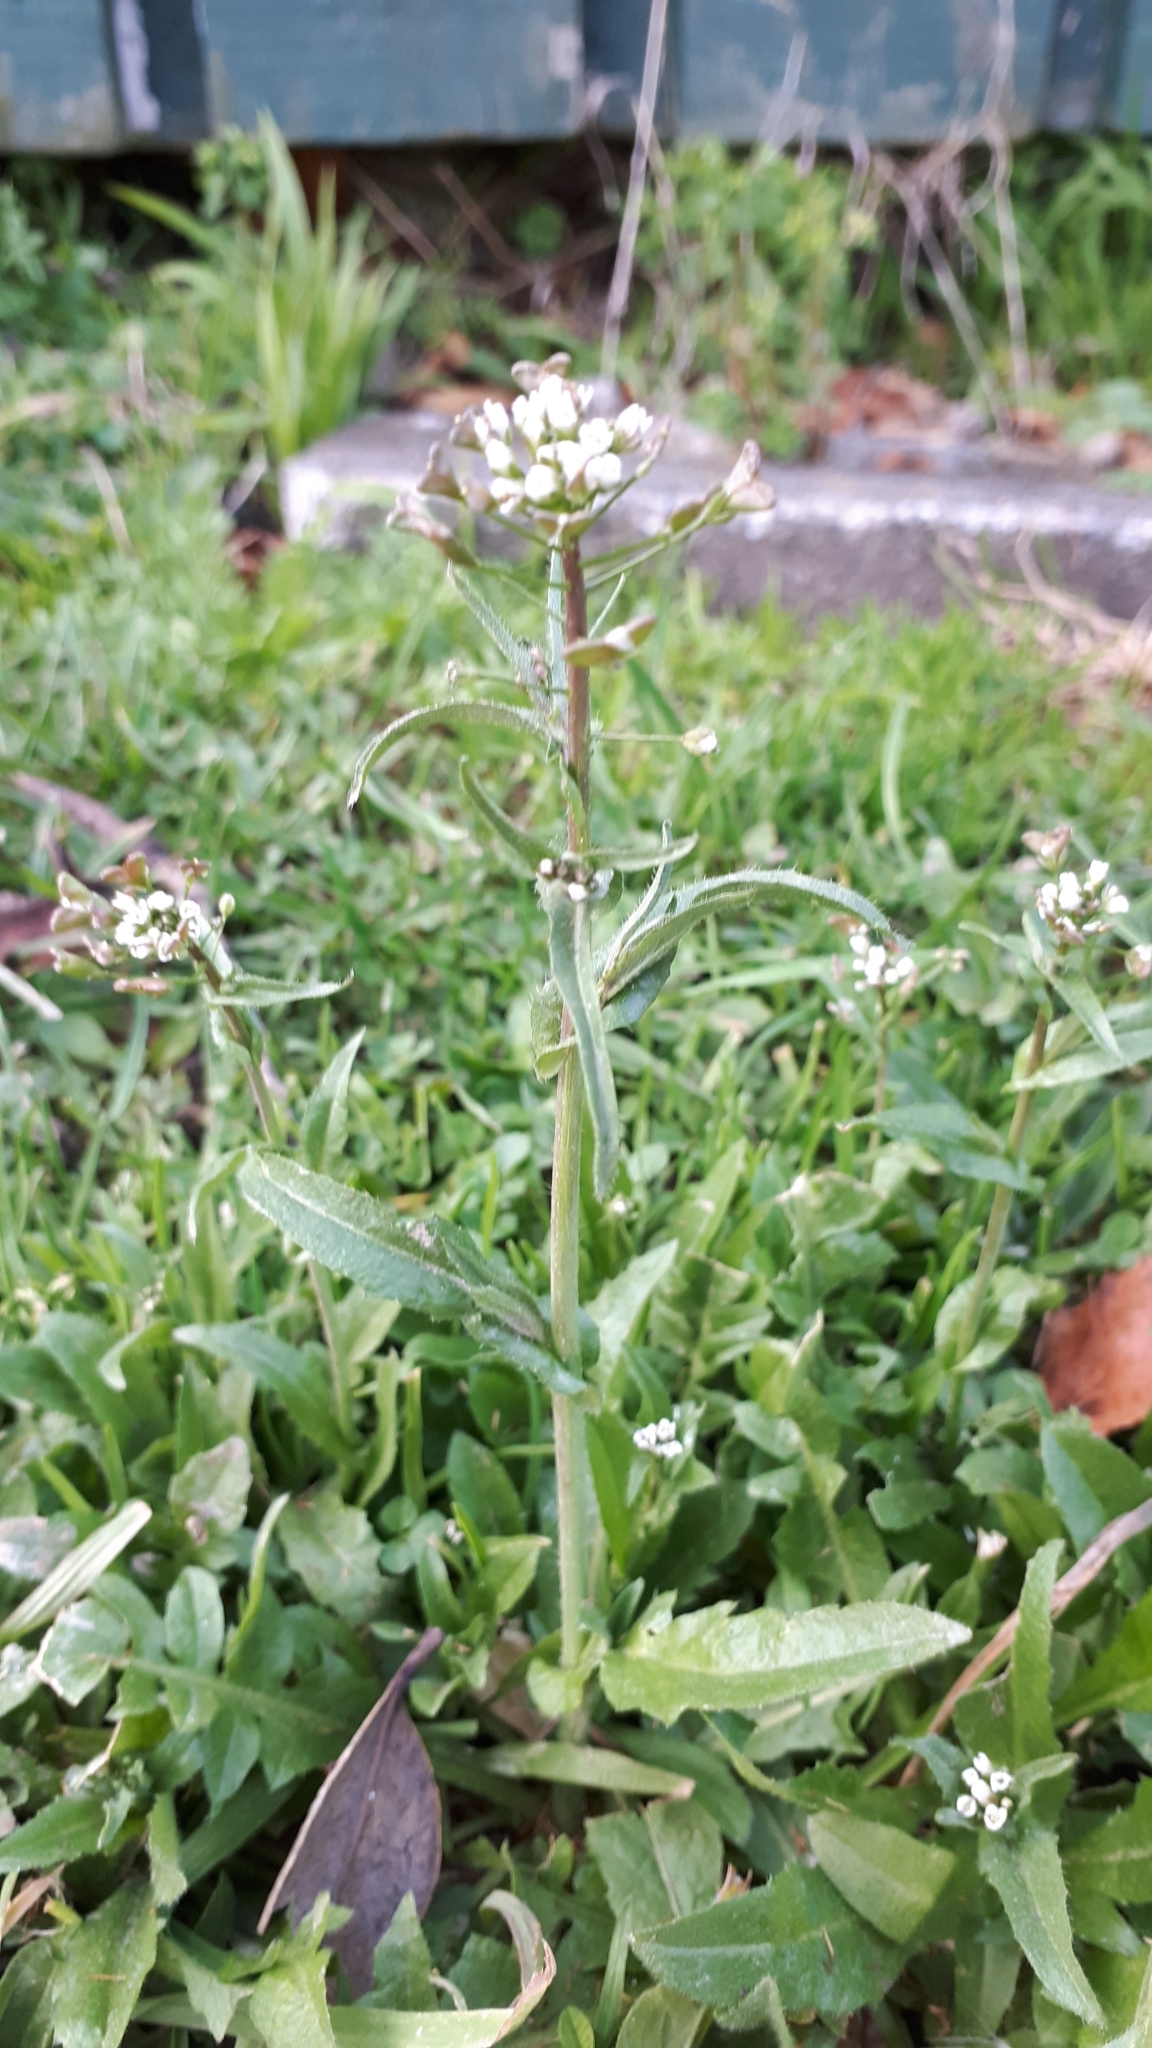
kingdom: Plantae
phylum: Tracheophyta
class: Magnoliopsida
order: Brassicales
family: Brassicaceae
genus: Capsella
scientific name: Capsella bursa-pastoris
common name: Shepherd's purse
